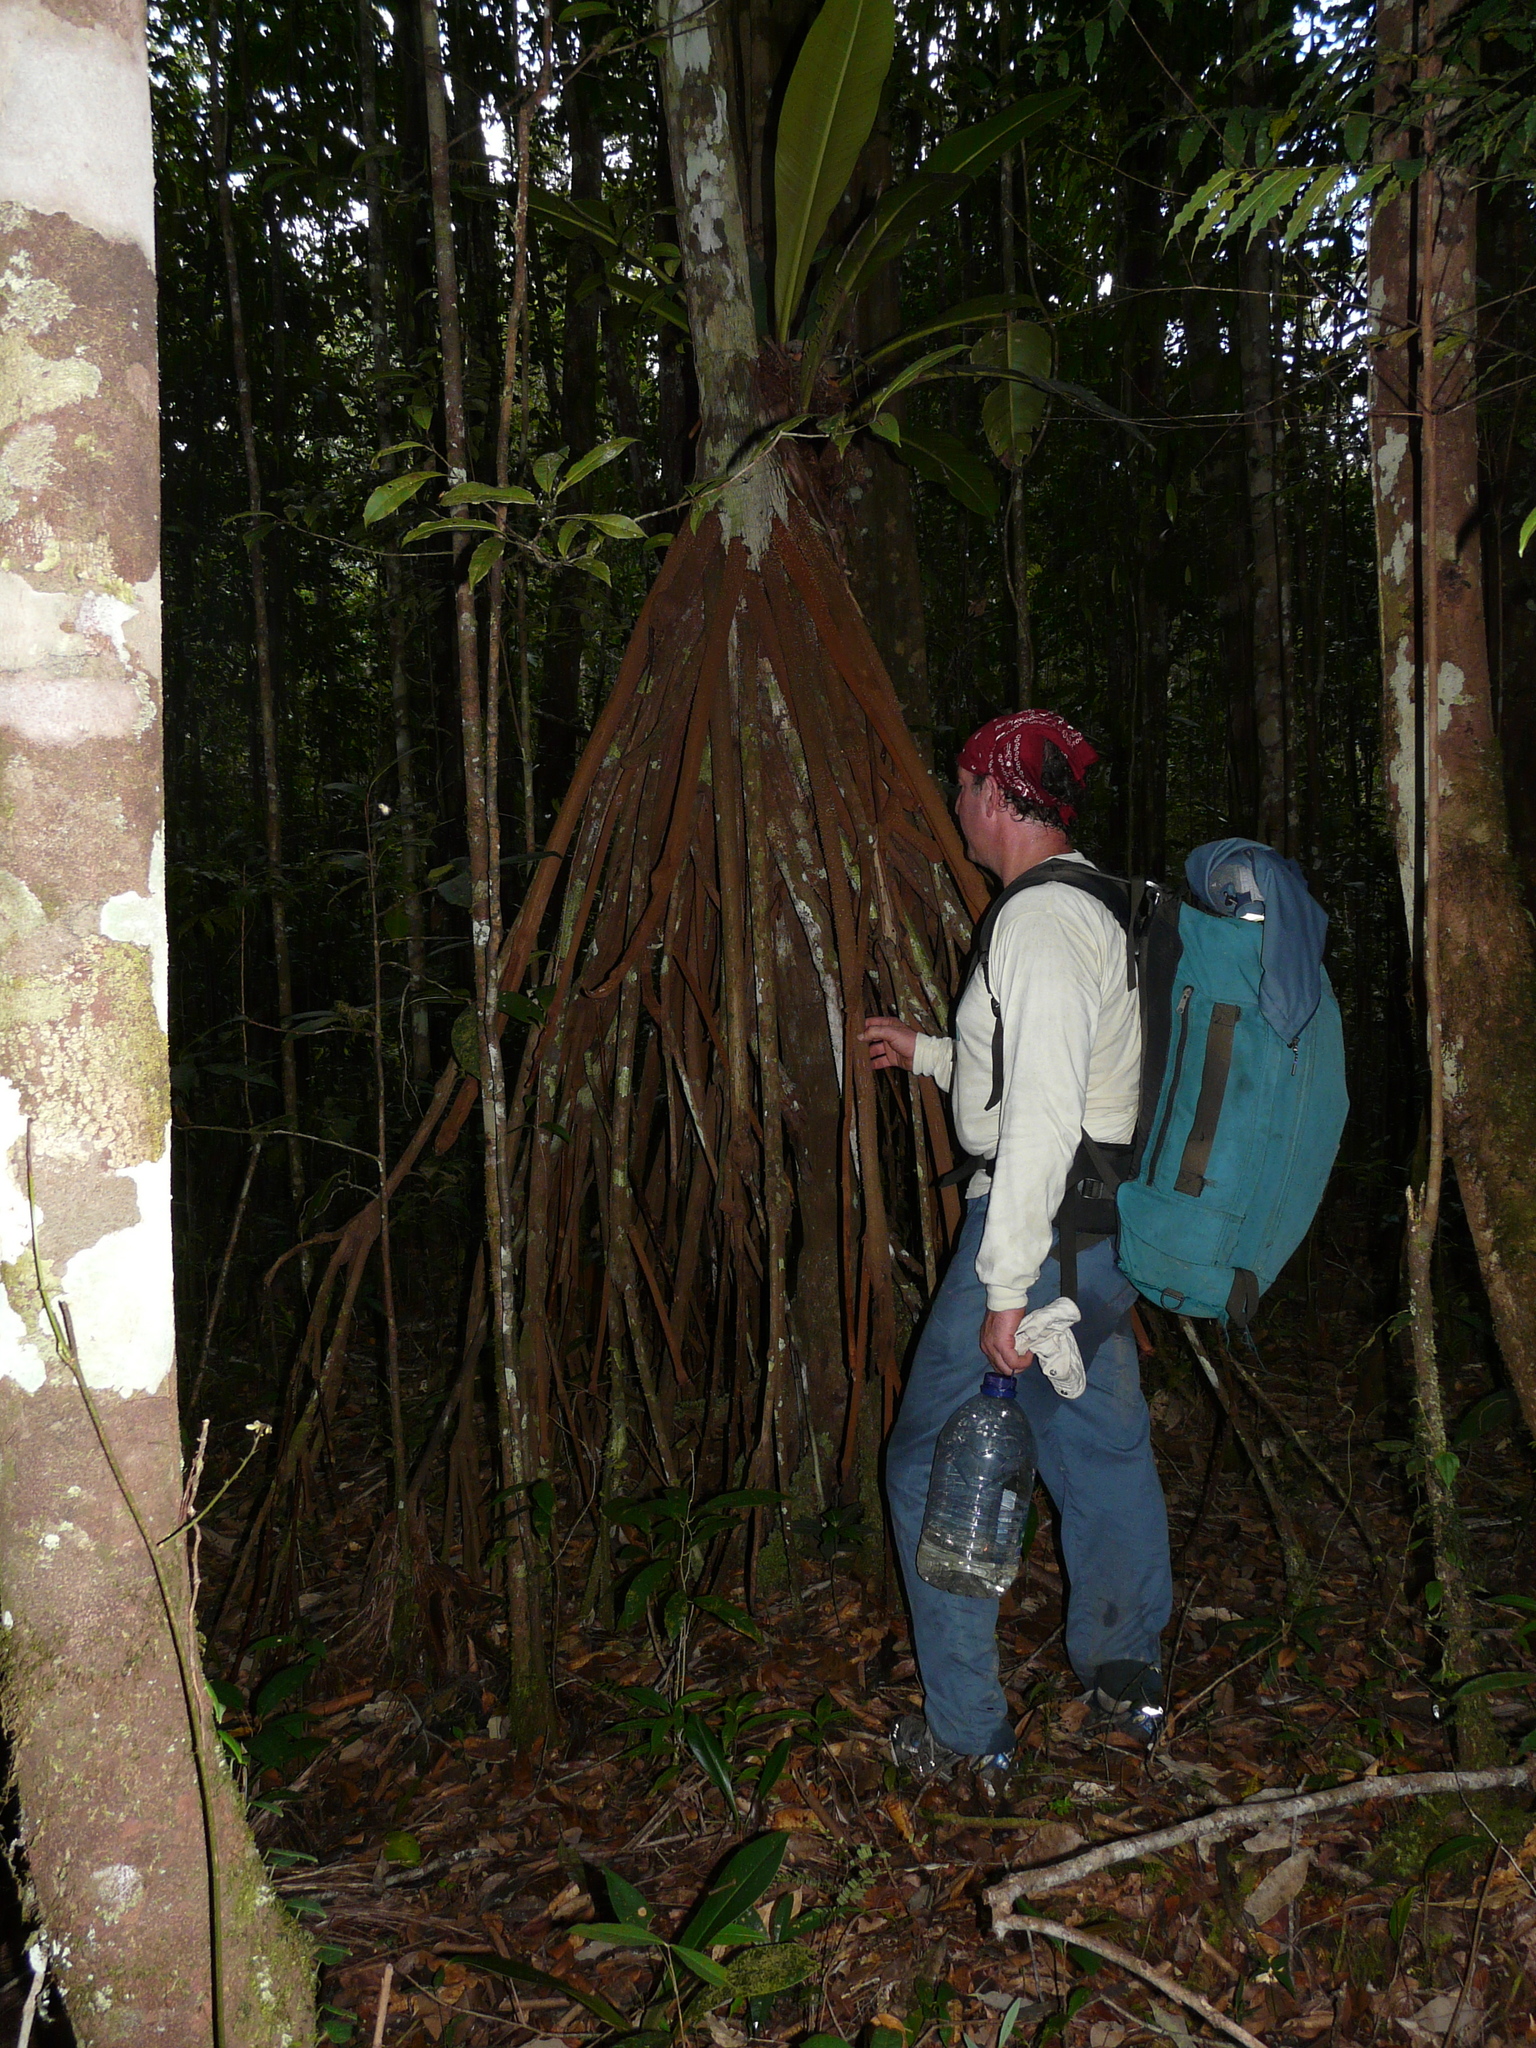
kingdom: Plantae
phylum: Tracheophyta
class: Liliopsida
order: Arecales
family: Arecaceae
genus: Socratea
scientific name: Socratea exorrhiza
